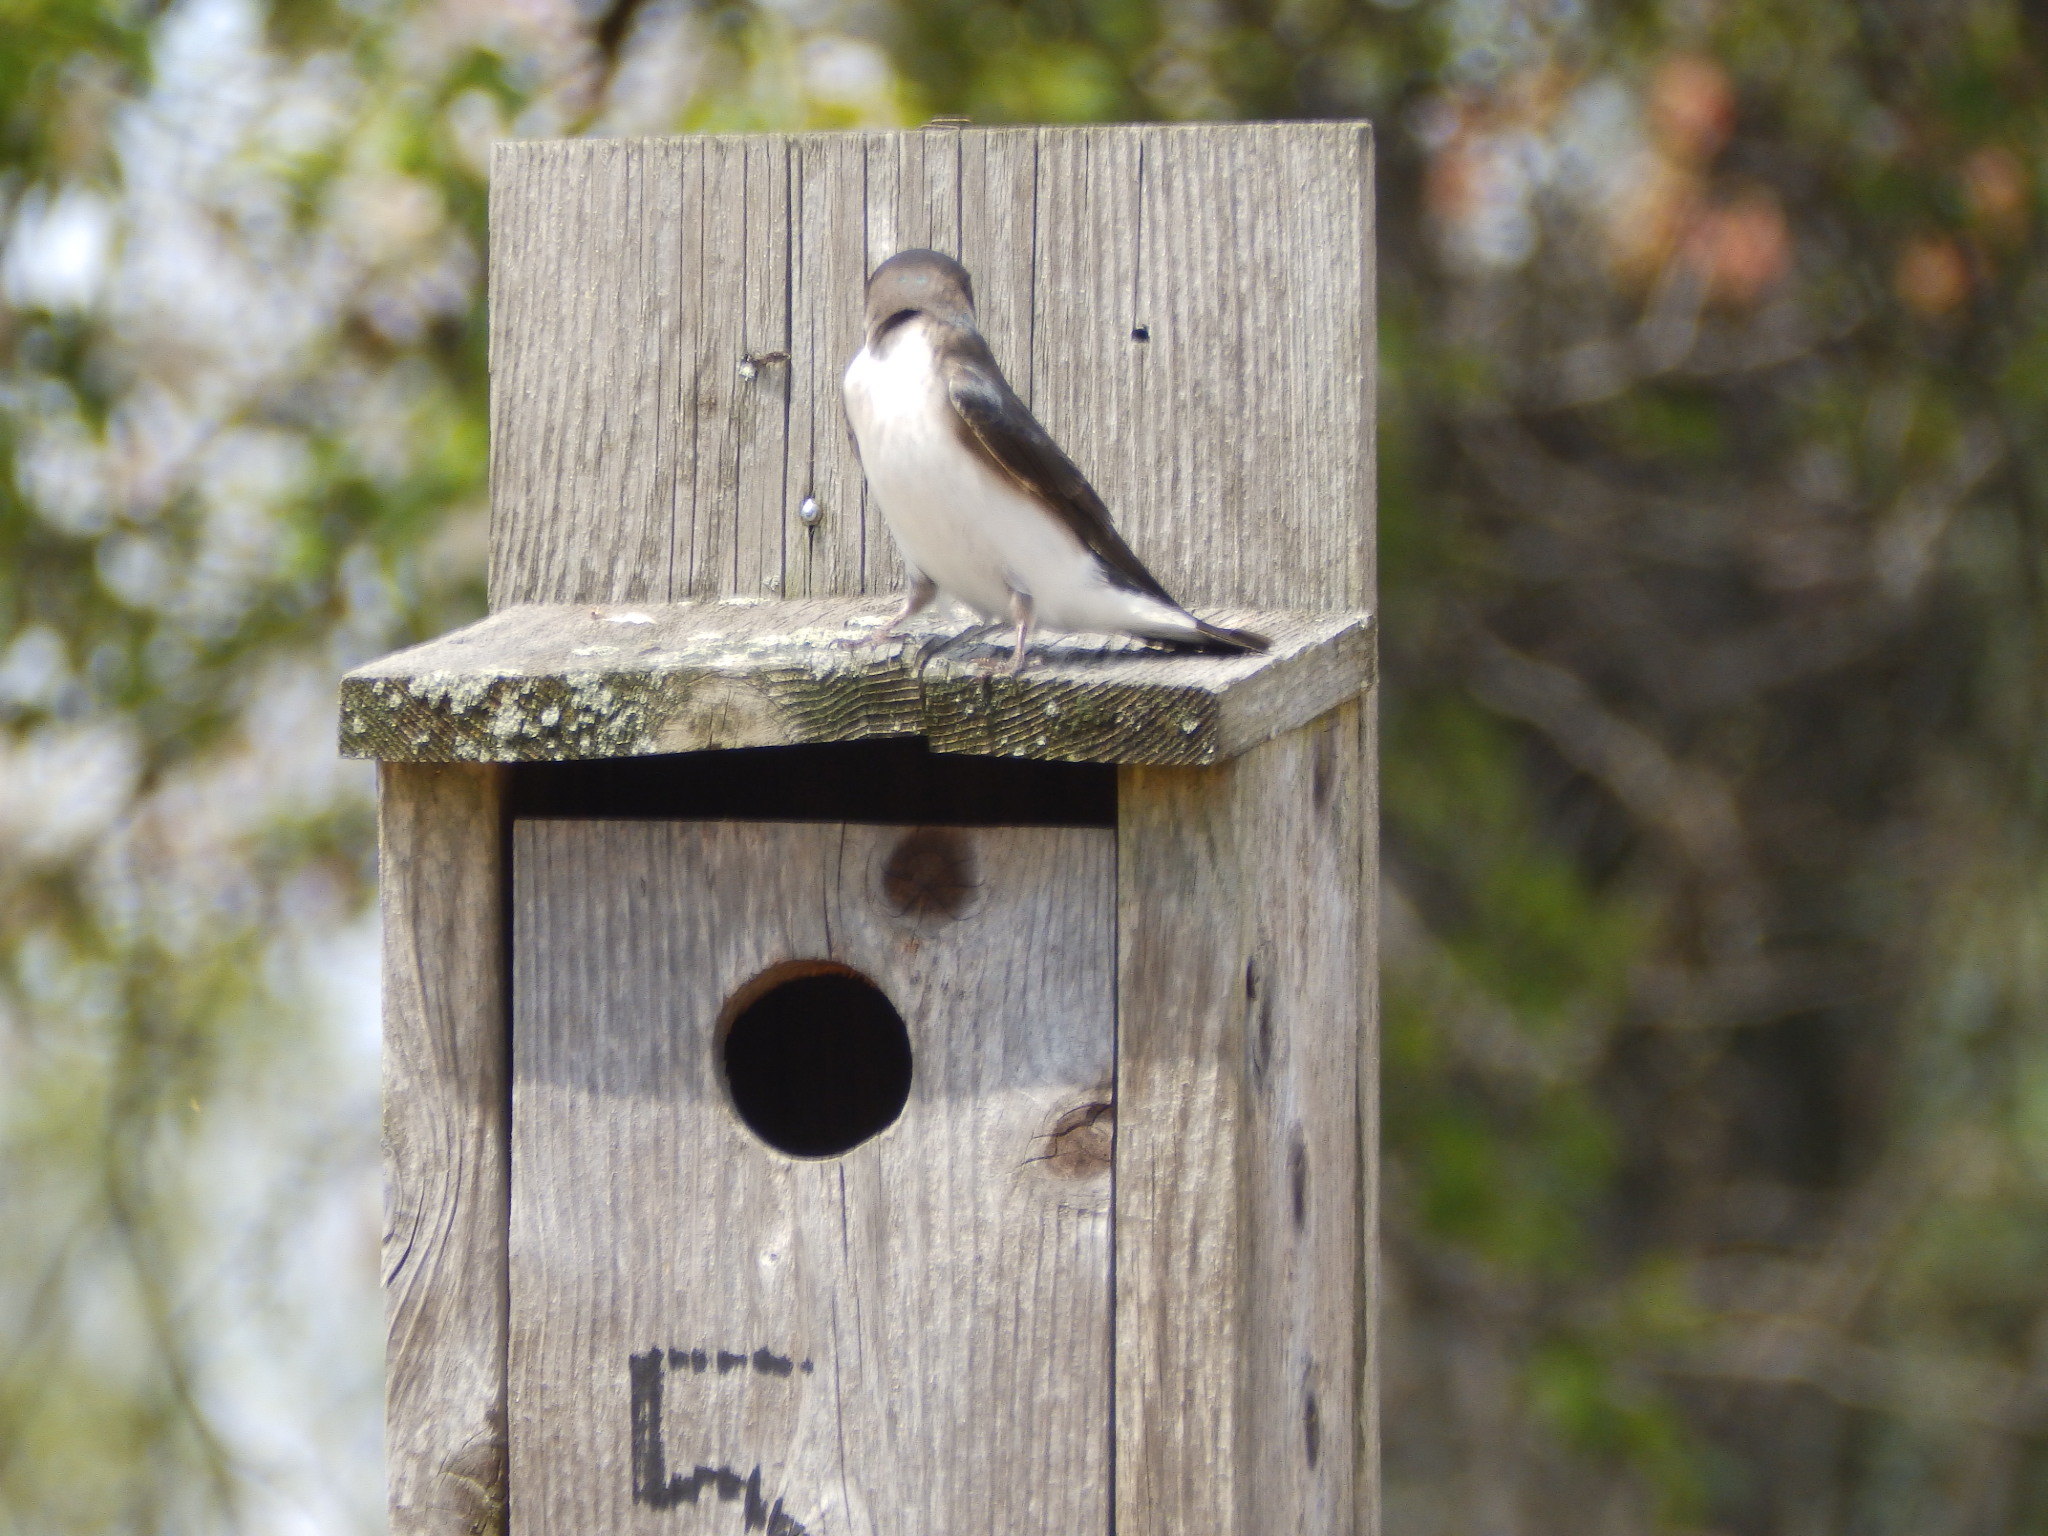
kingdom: Animalia
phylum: Chordata
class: Aves
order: Passeriformes
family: Hirundinidae
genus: Tachycineta
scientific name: Tachycineta bicolor
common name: Tree swallow
